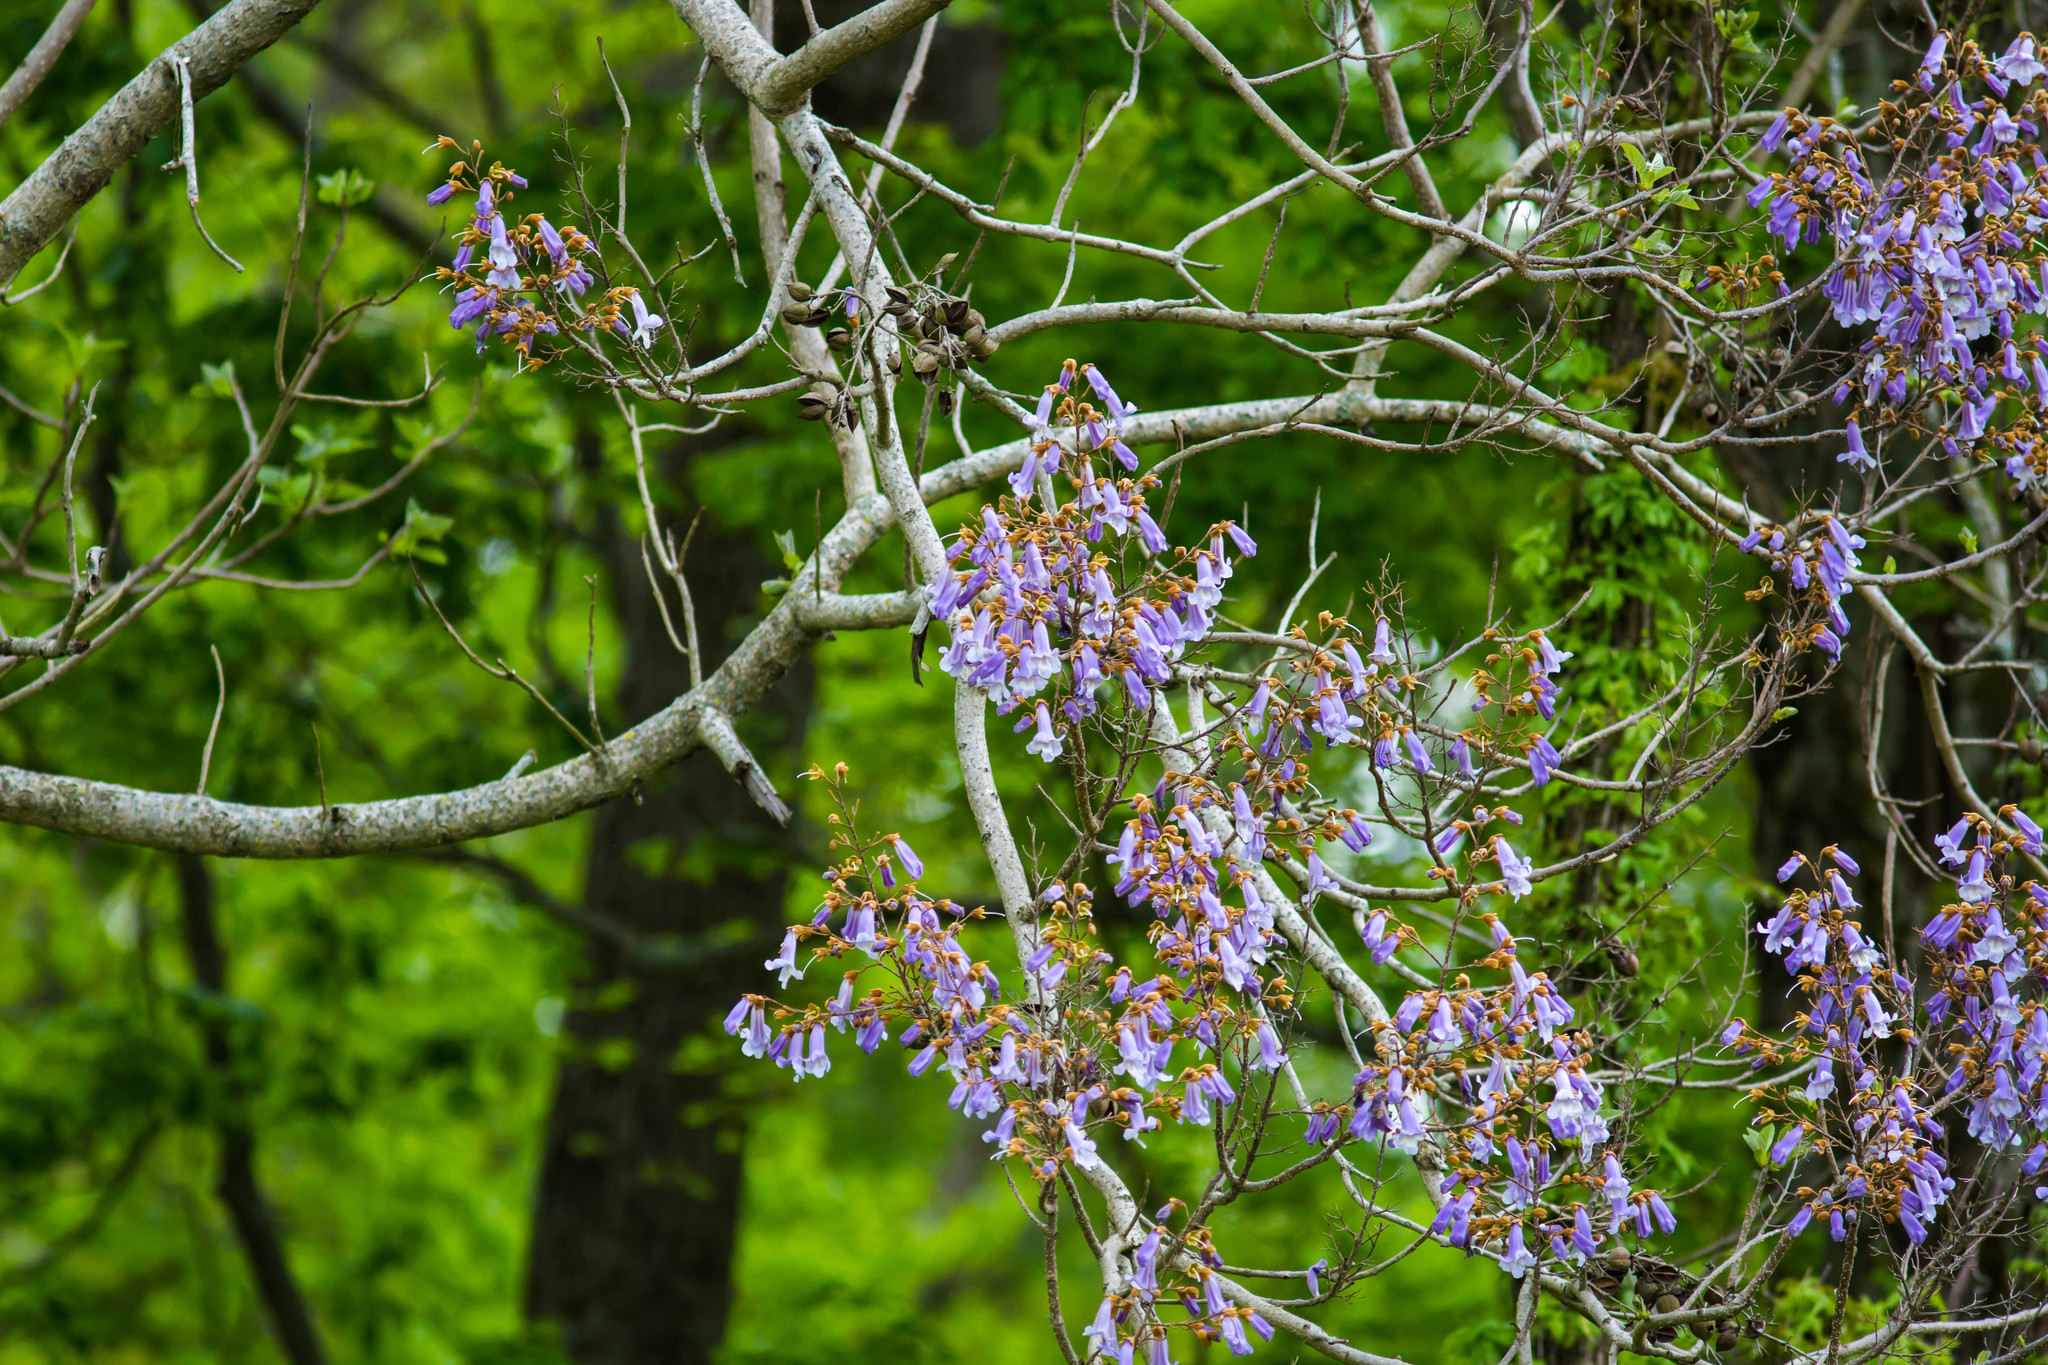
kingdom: Plantae
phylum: Tracheophyta
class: Magnoliopsida
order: Lamiales
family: Paulowniaceae
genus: Paulownia
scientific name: Paulownia tomentosa
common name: Foxglove-tree
